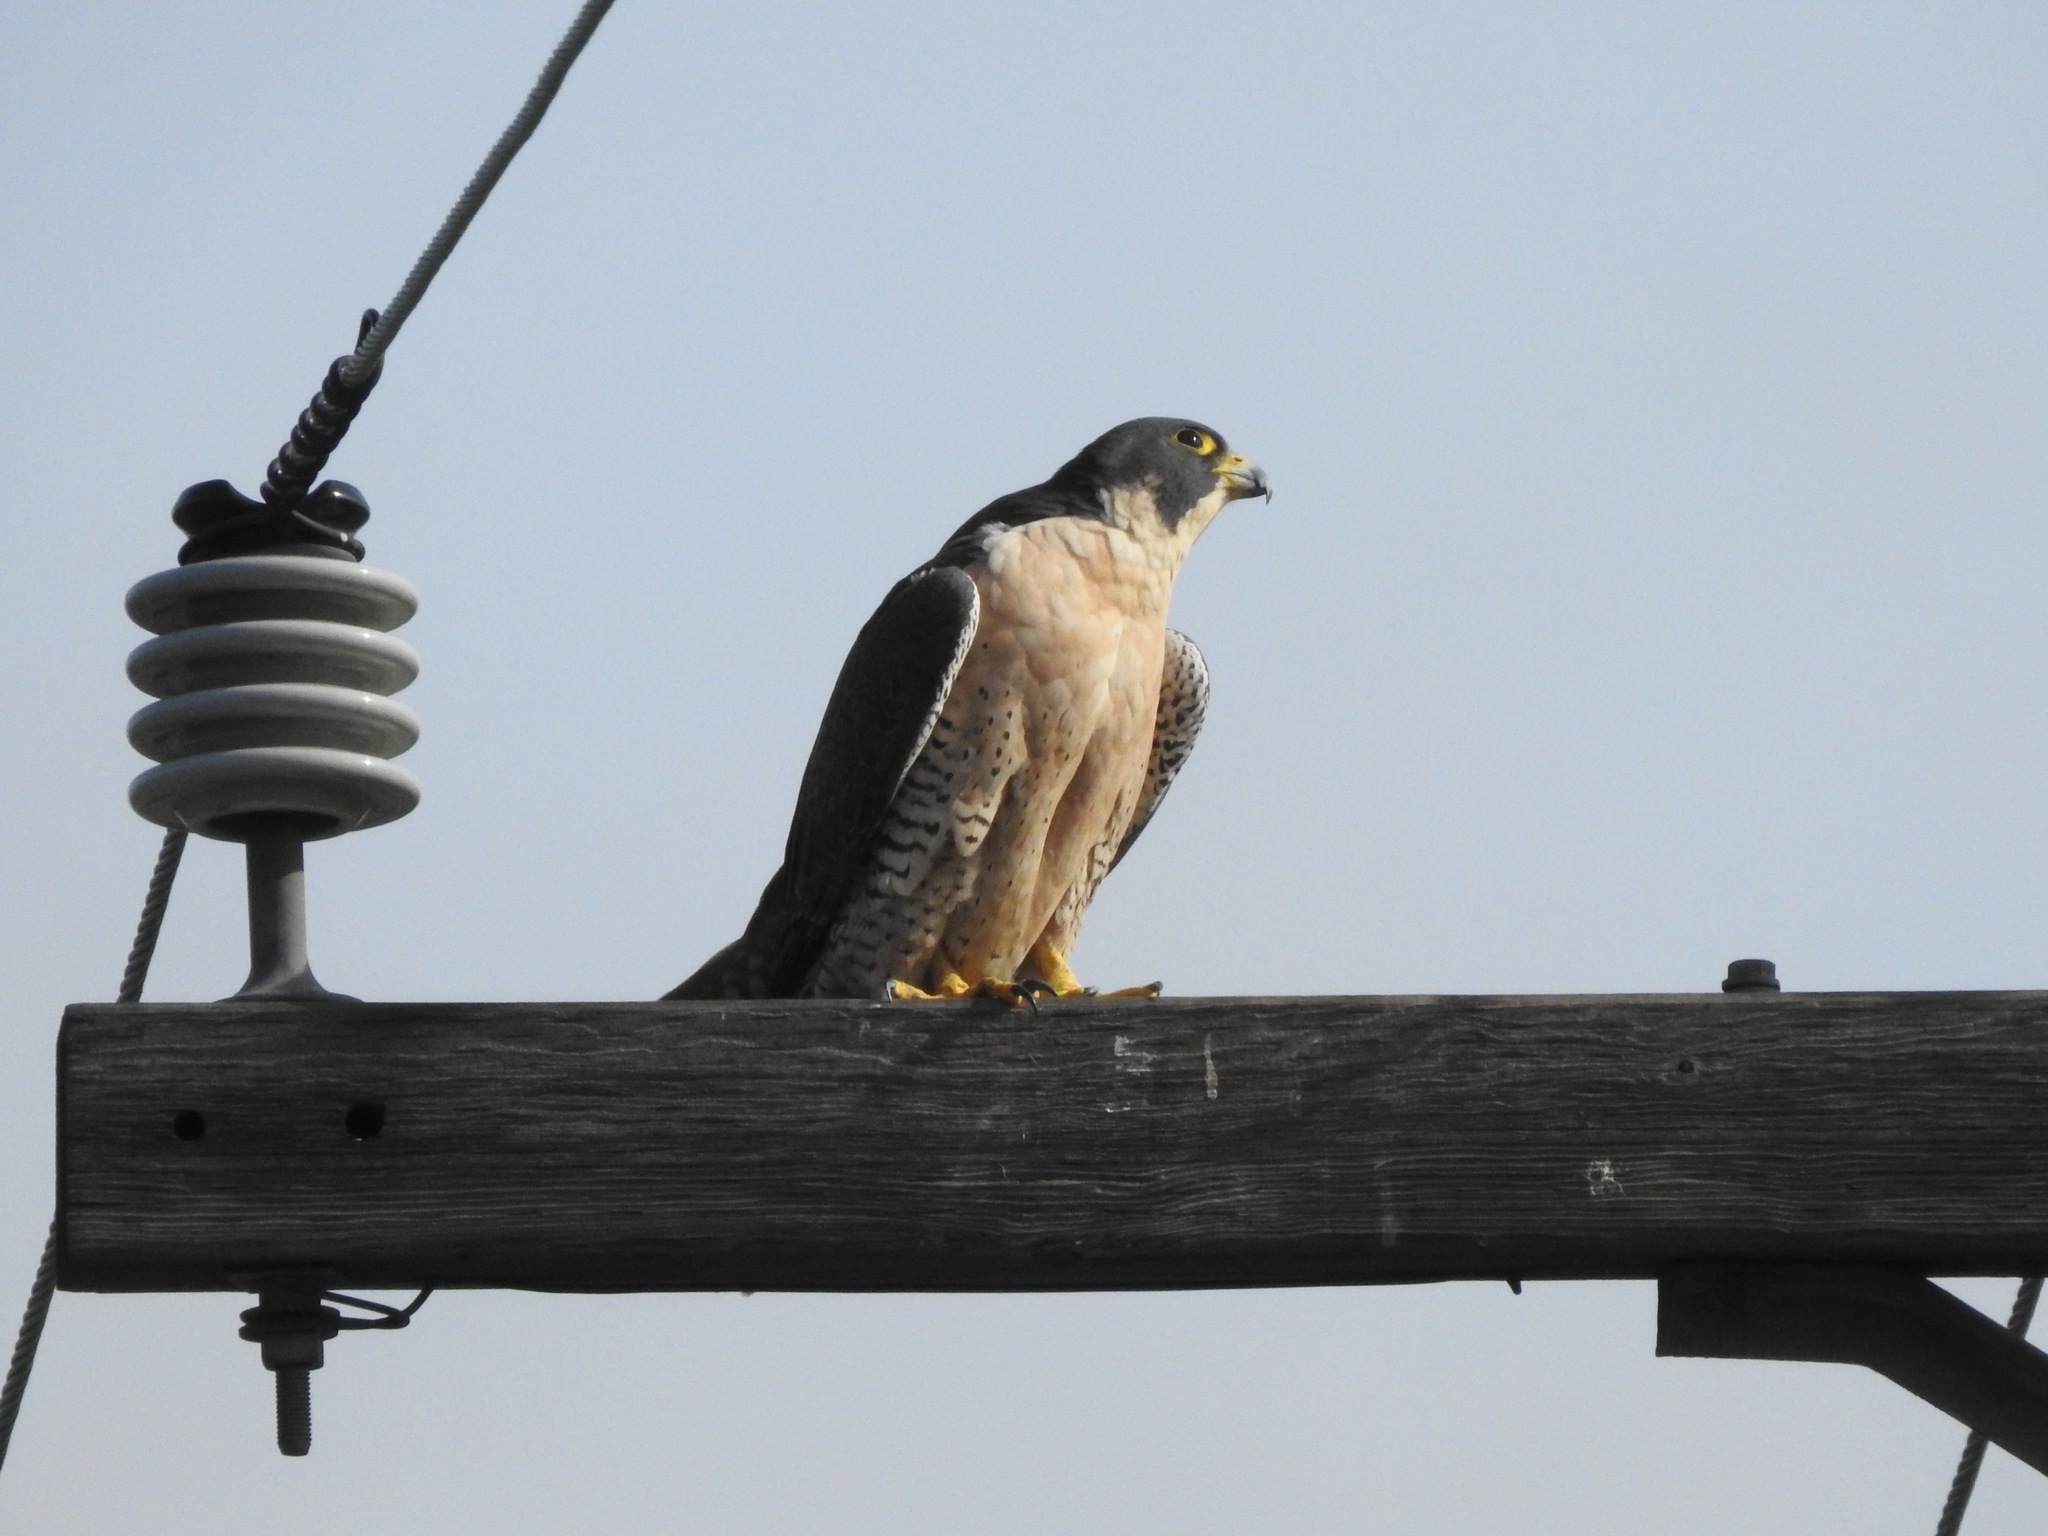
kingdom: Animalia
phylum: Chordata
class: Aves
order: Falconiformes
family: Falconidae
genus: Falco
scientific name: Falco peregrinus
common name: Peregrine falcon
